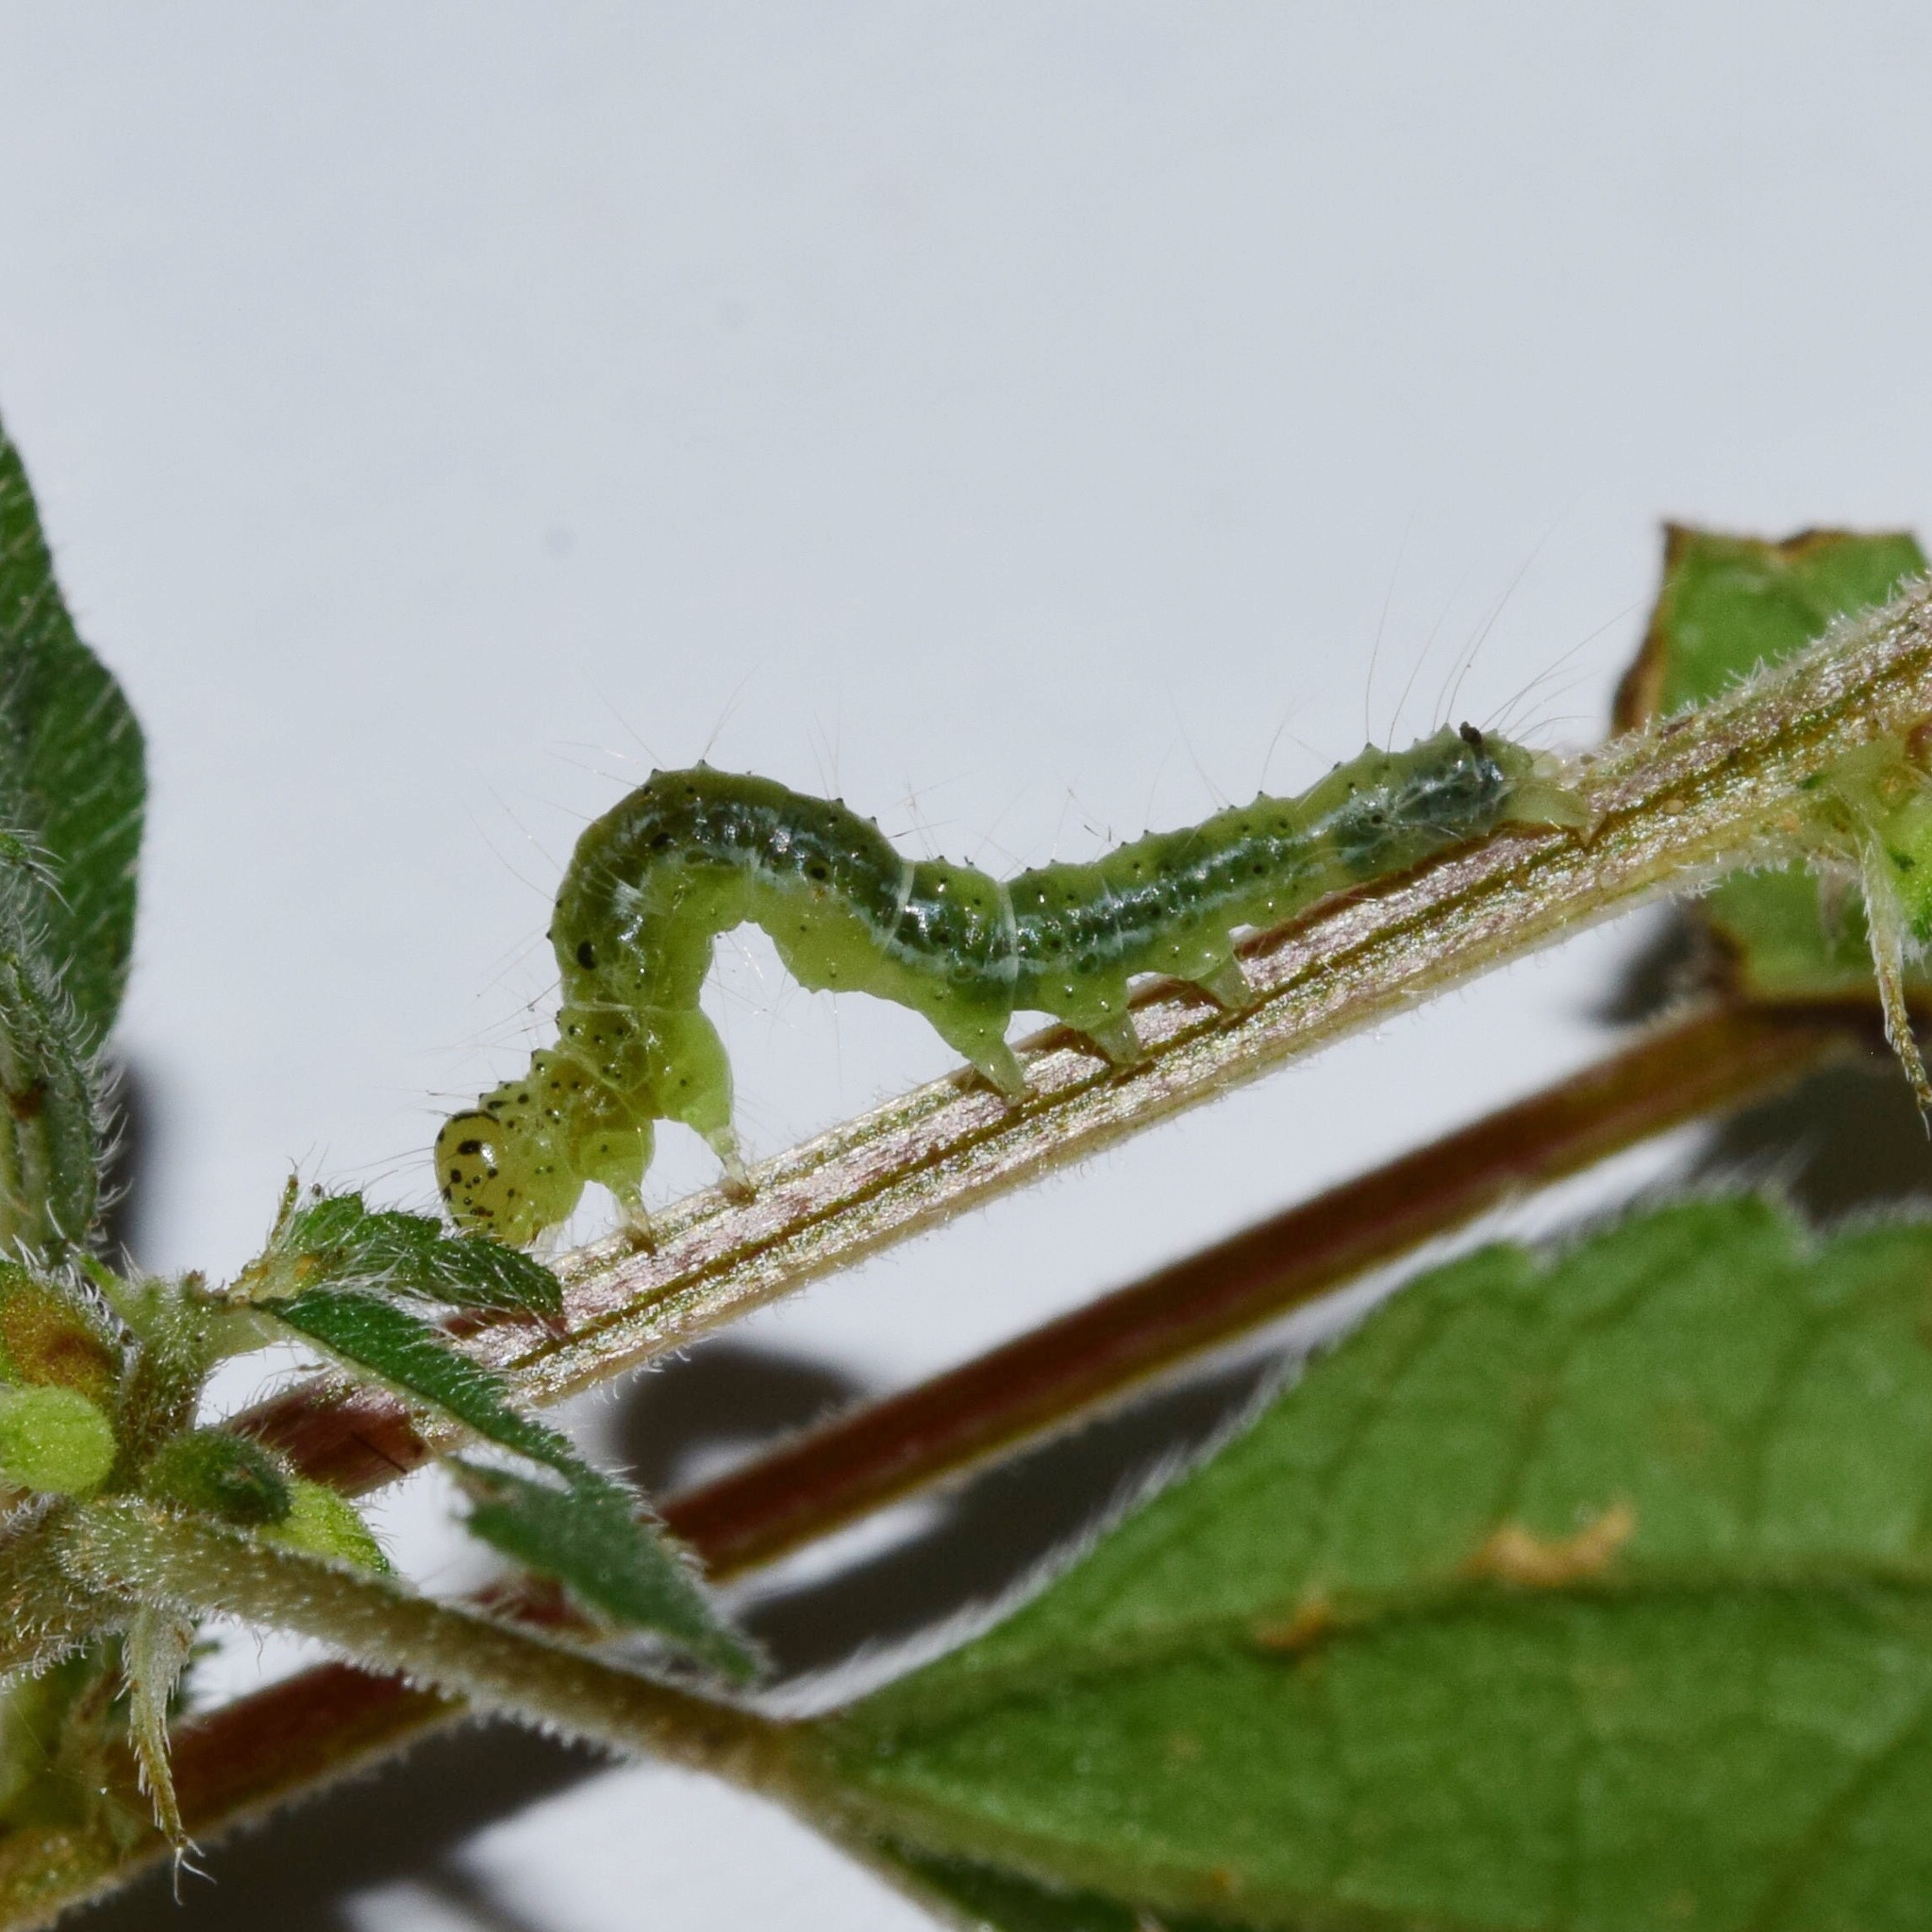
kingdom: Animalia
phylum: Arthropoda
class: Insecta
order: Lepidoptera
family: Erebidae
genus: Hypena
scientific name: Hypena
